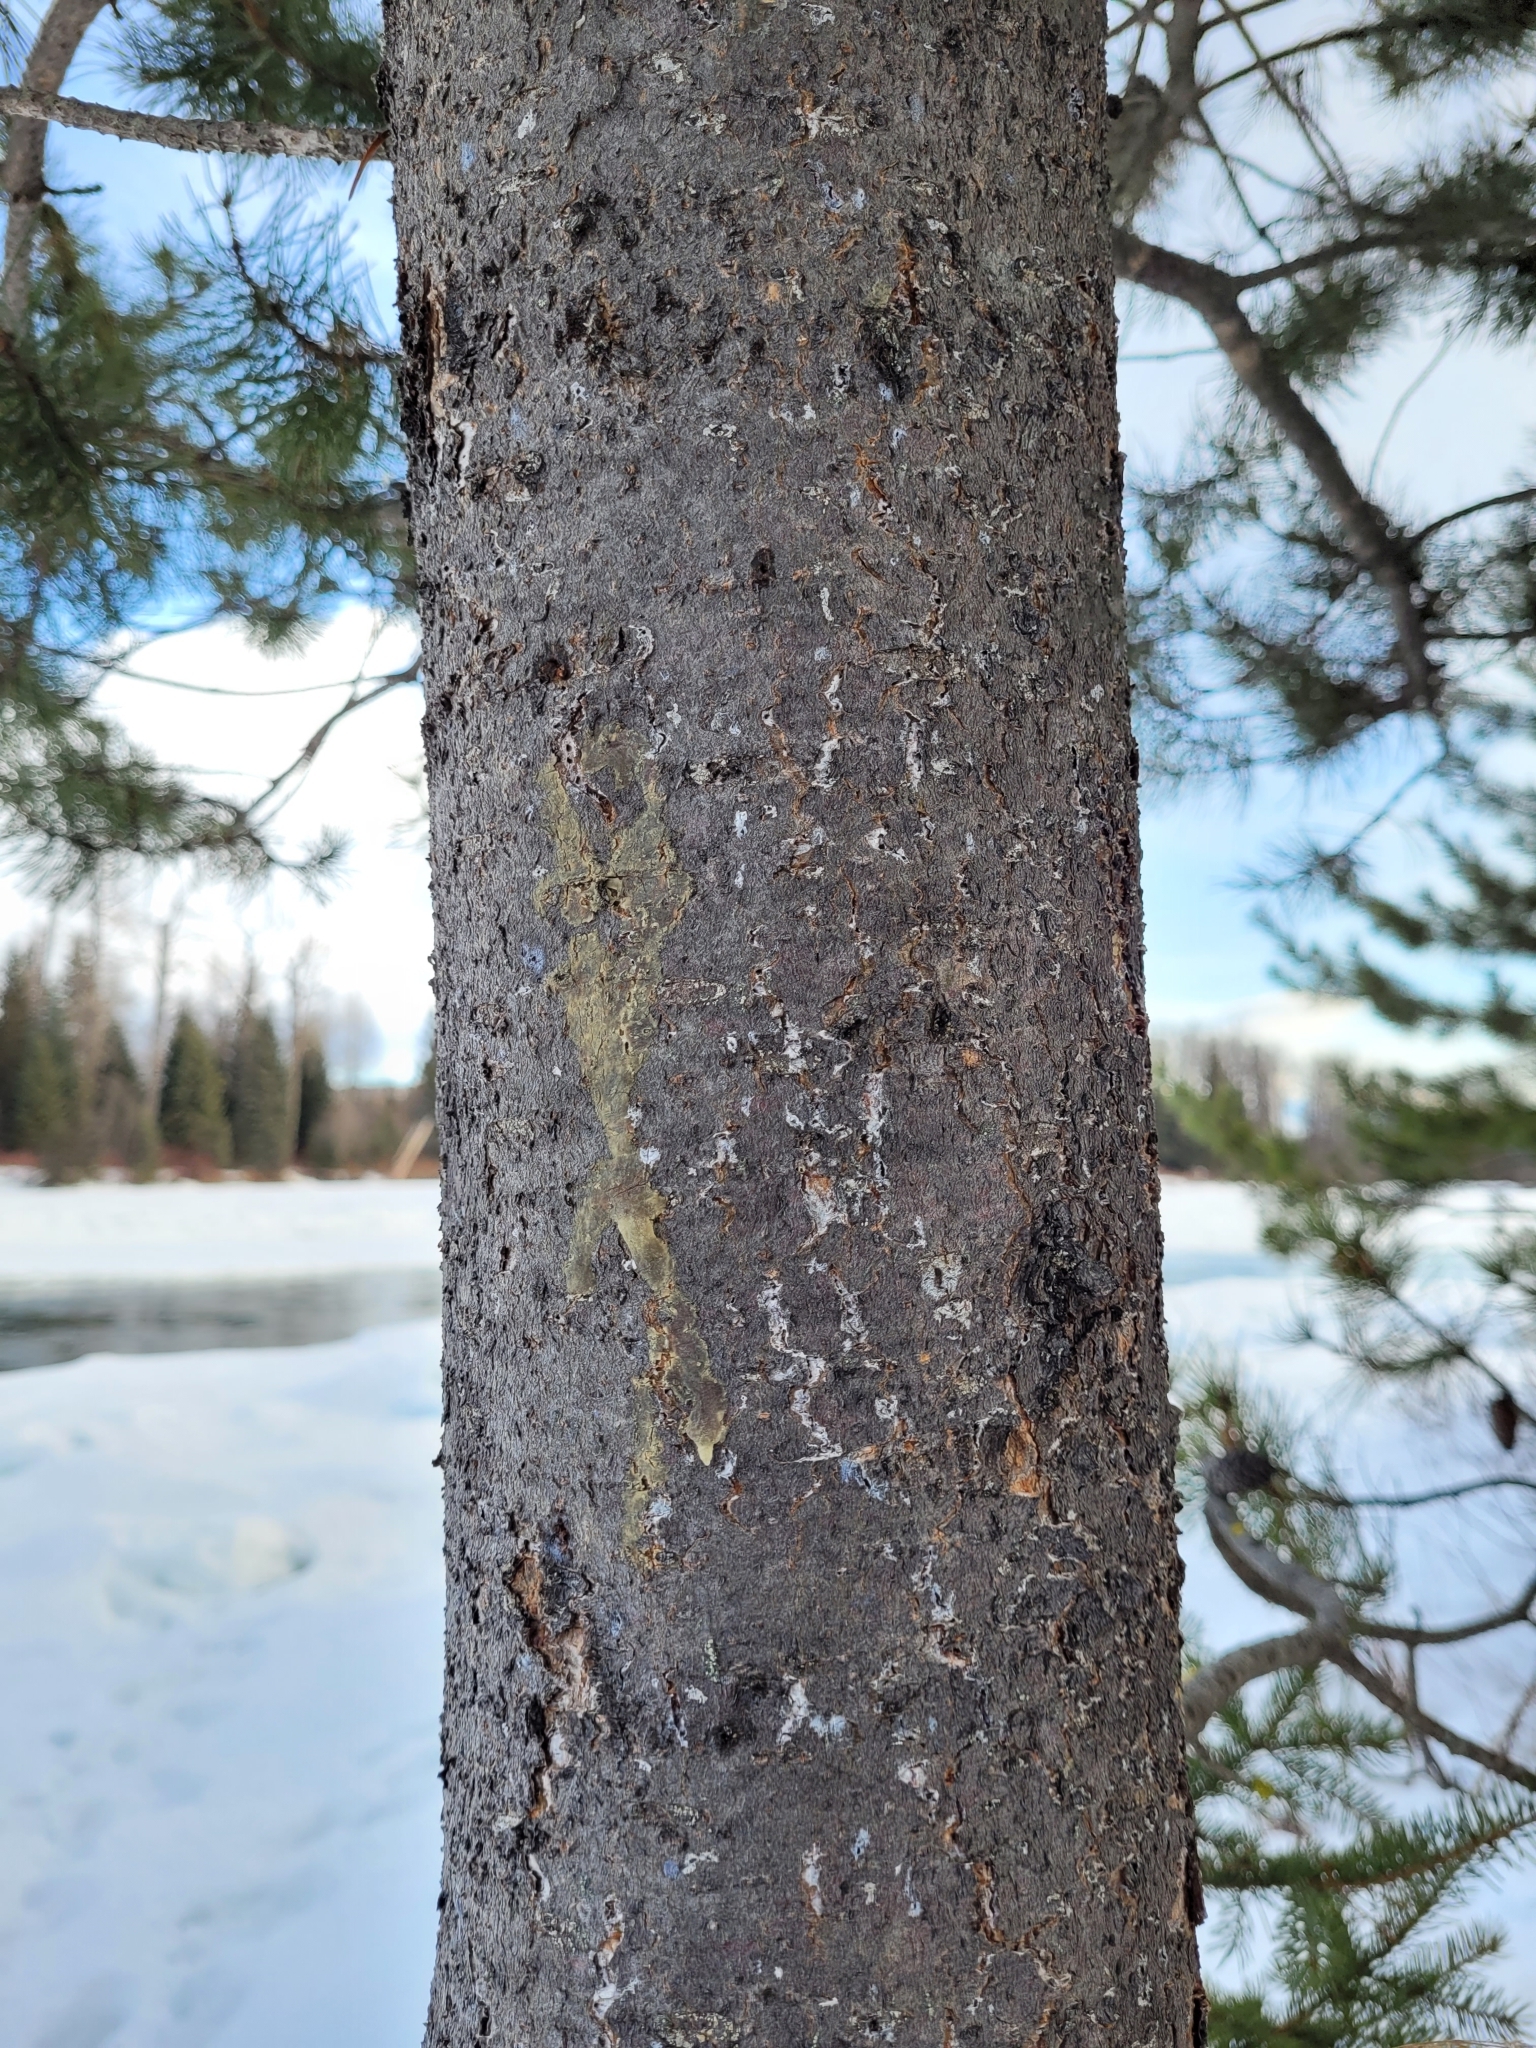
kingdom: Plantae
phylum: Tracheophyta
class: Pinopsida
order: Pinales
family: Pinaceae
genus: Pinus
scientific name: Pinus contorta
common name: Lodgepole pine
